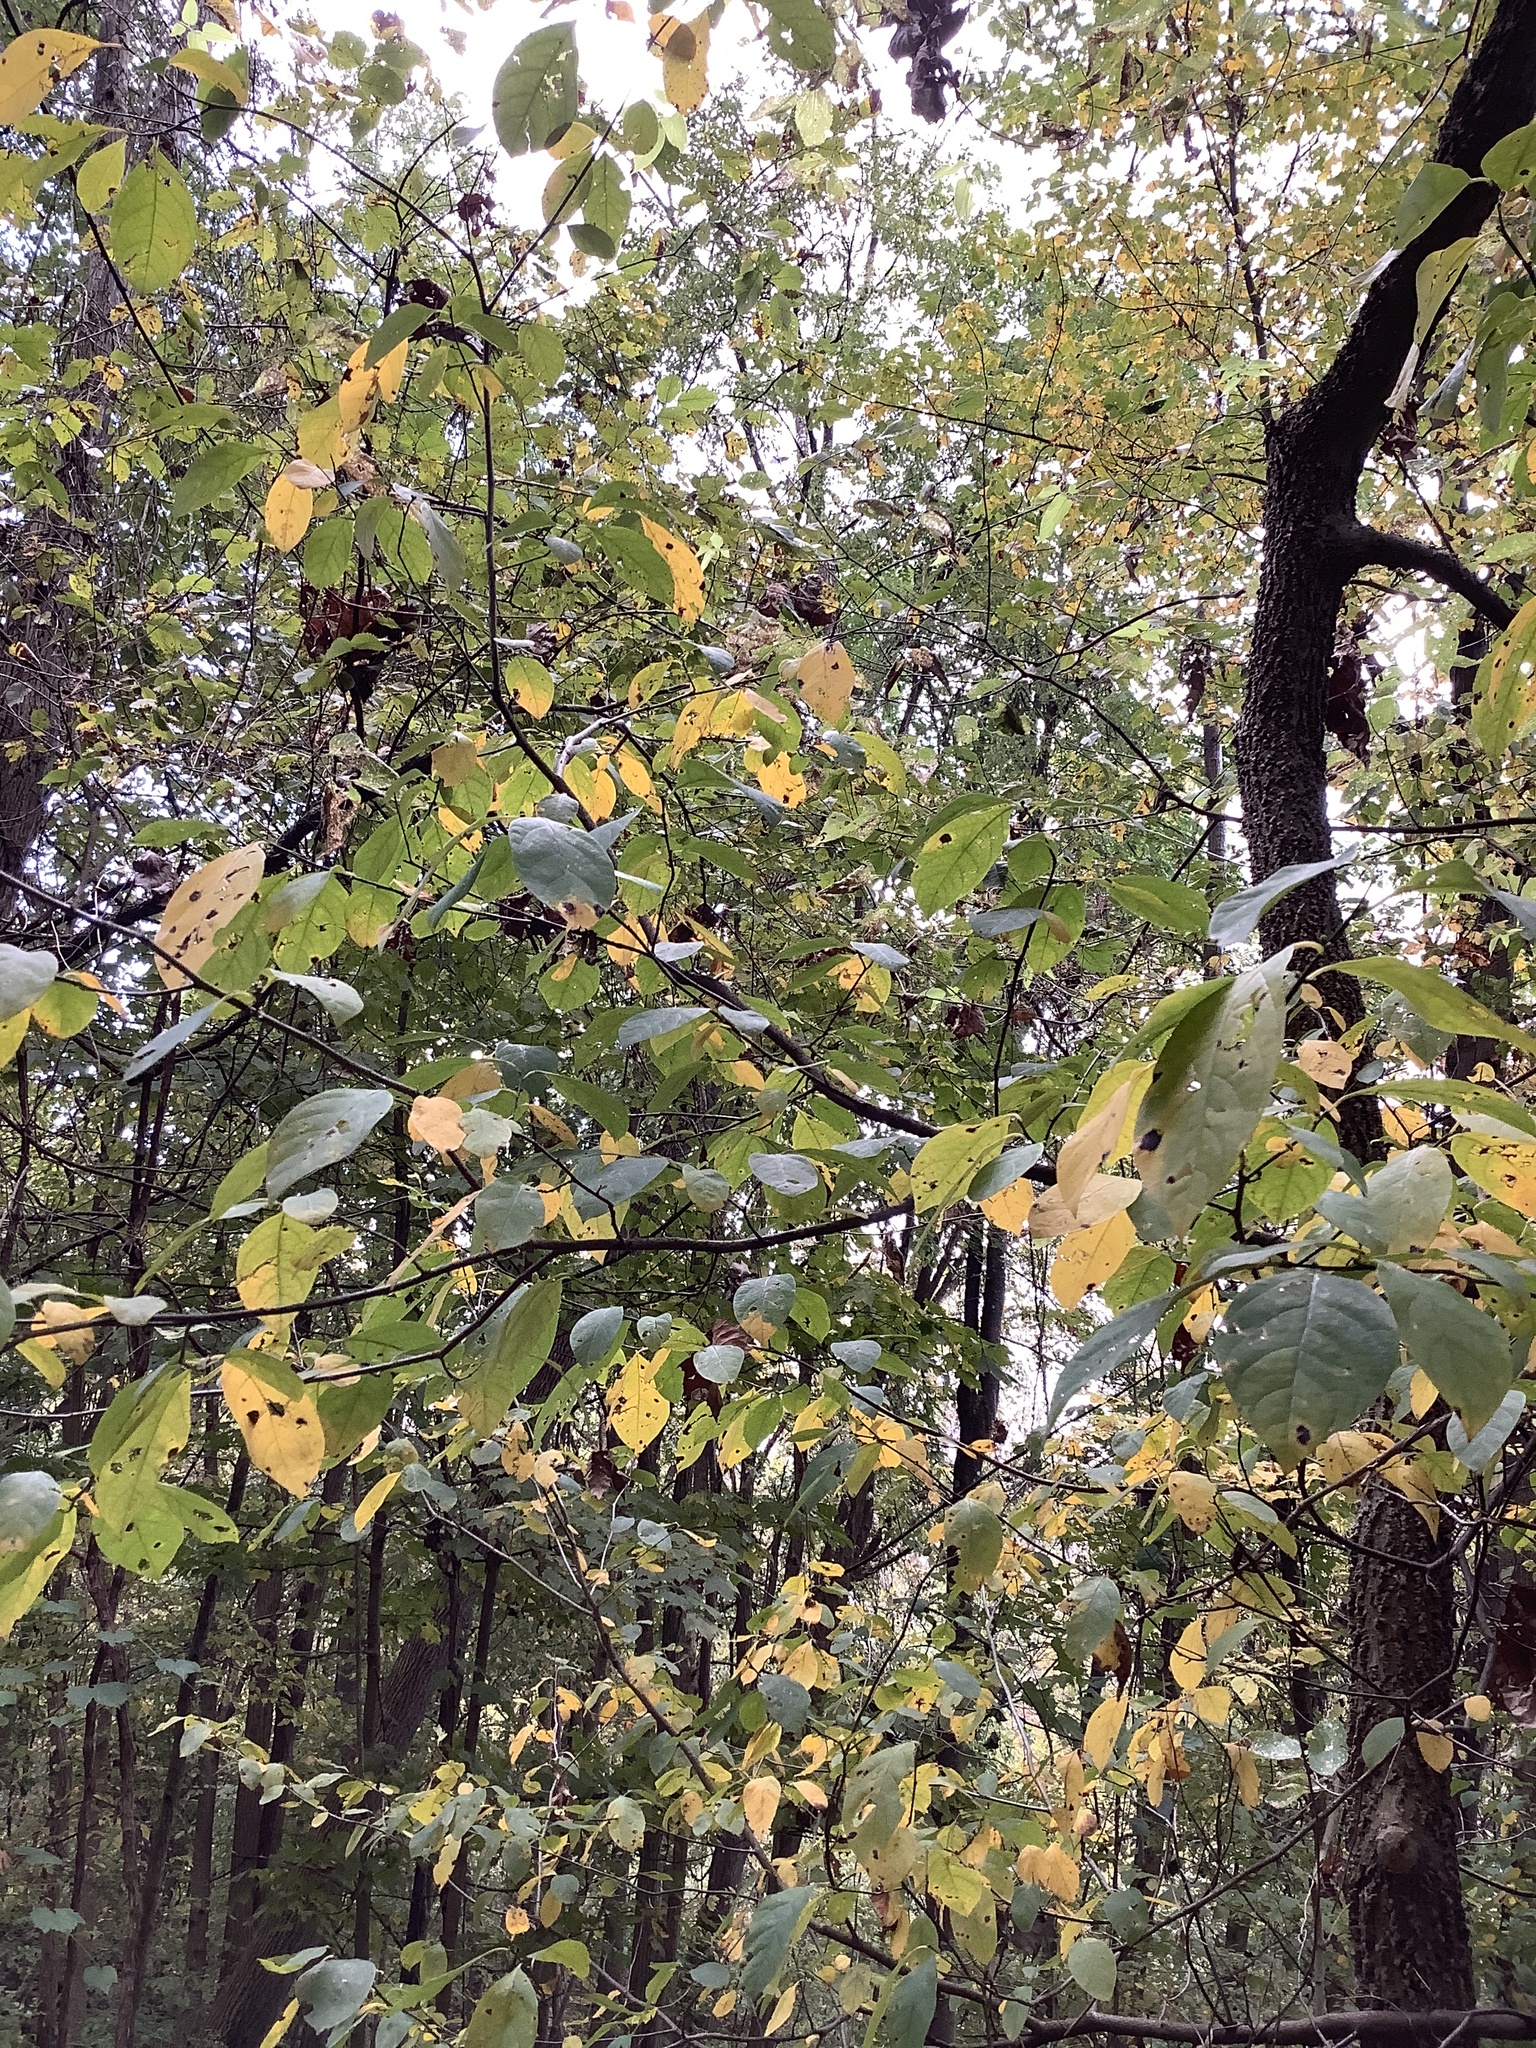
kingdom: Plantae
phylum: Tracheophyta
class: Magnoliopsida
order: Laurales
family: Lauraceae
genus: Lindera
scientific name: Lindera benzoin
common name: Spicebush
